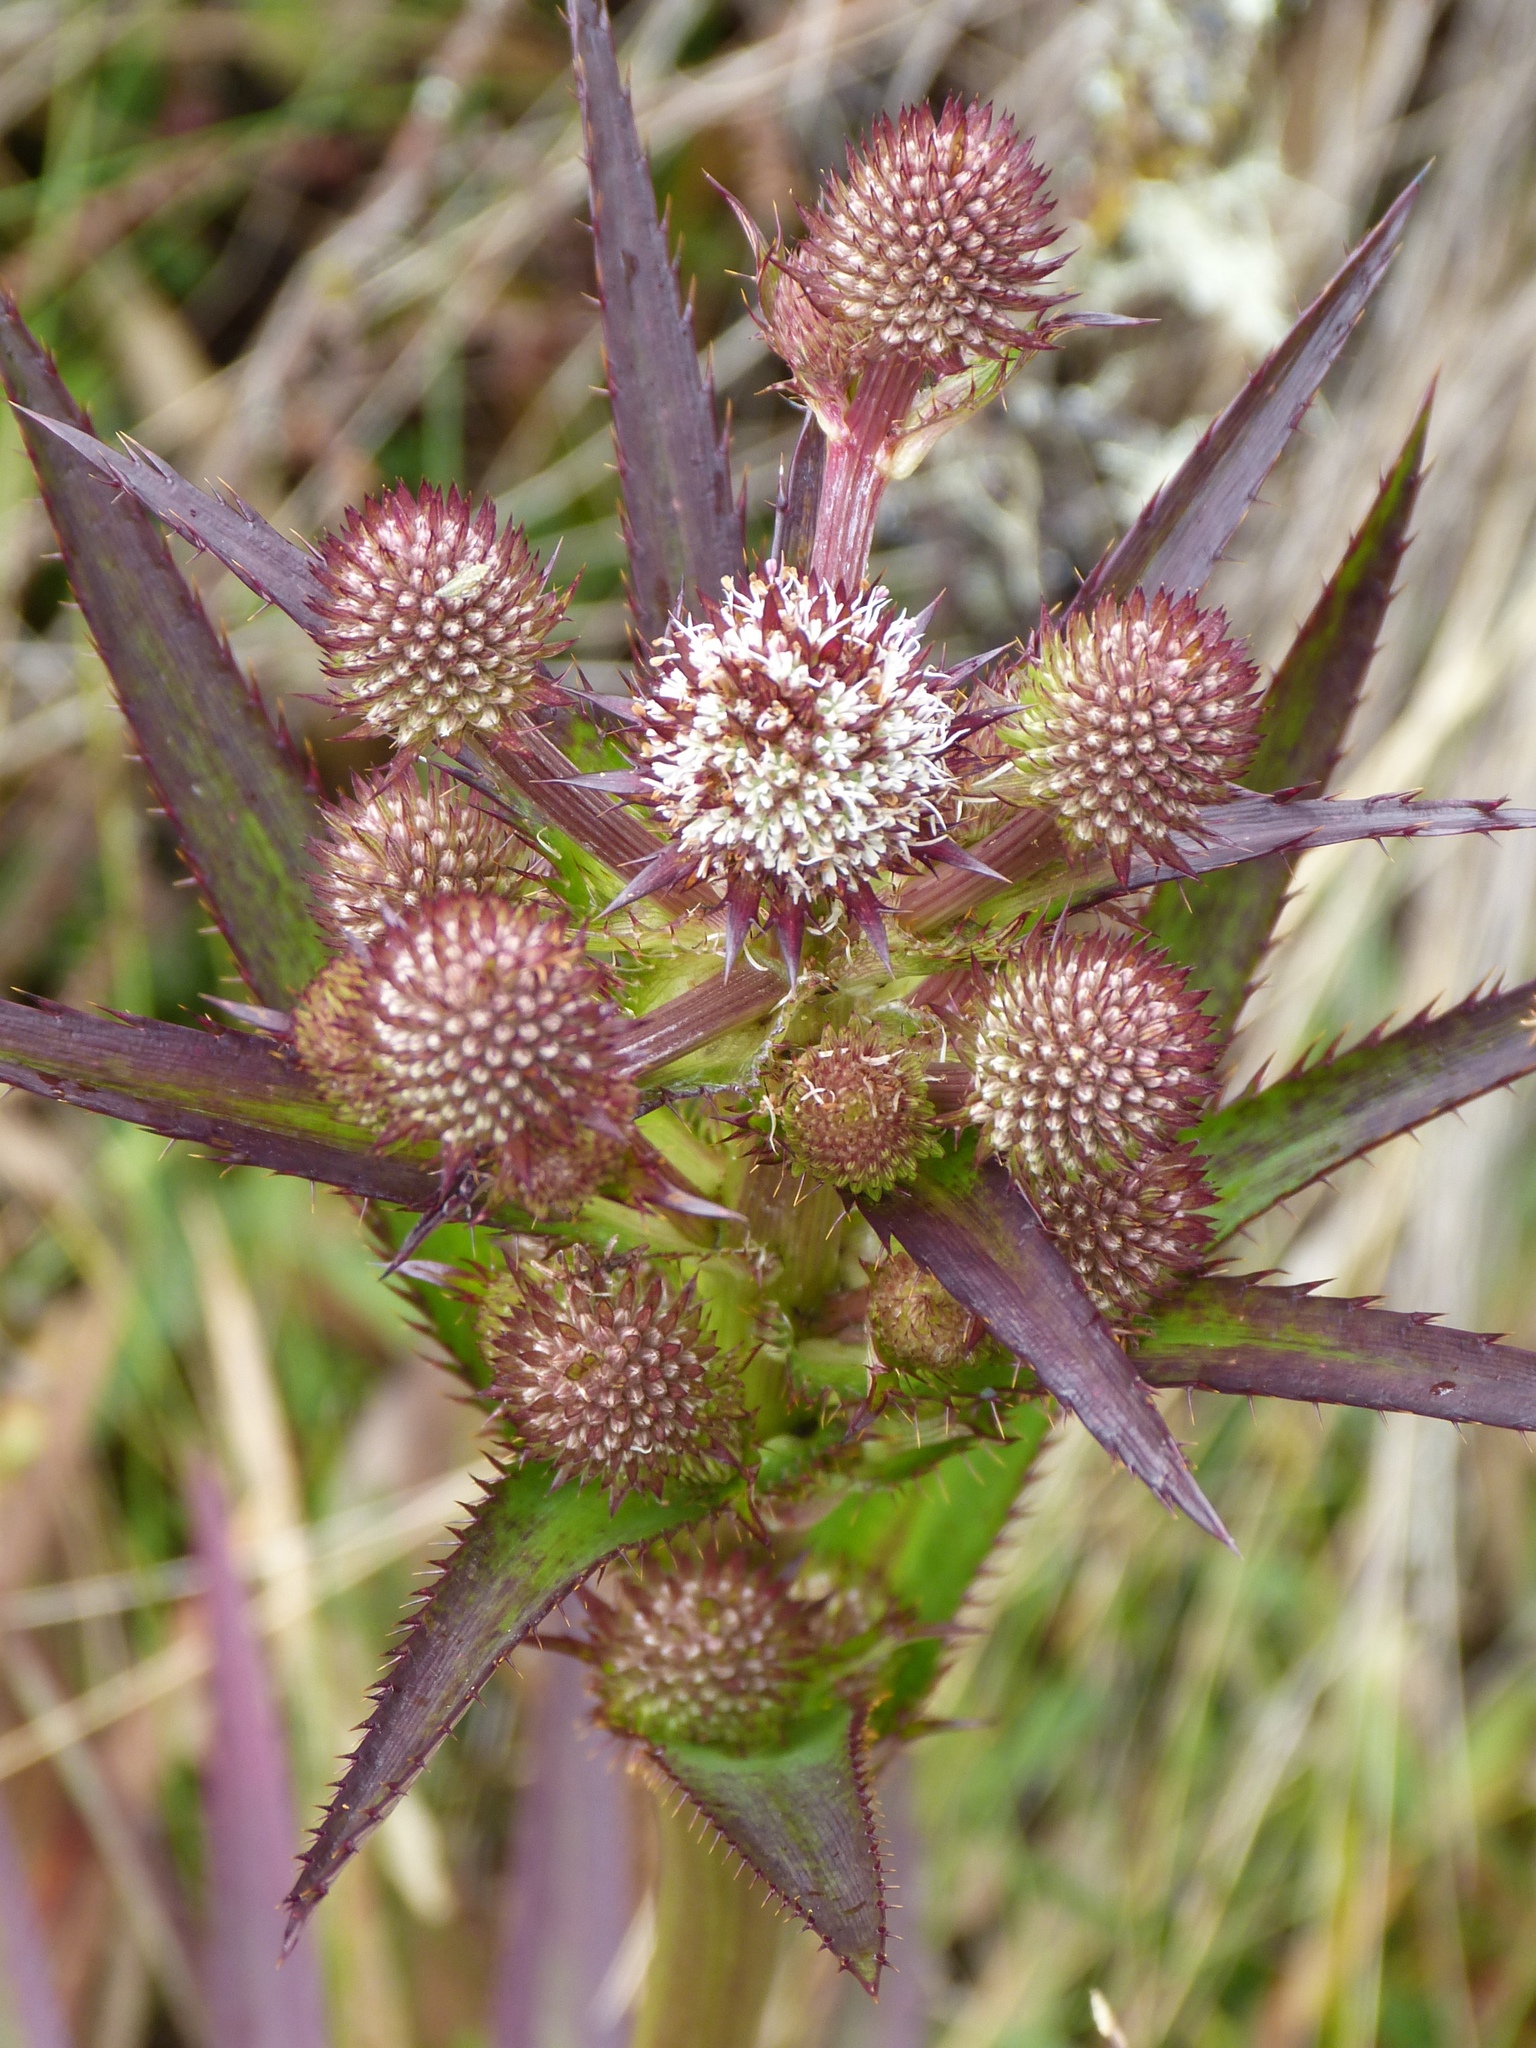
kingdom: Plantae
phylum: Tracheophyta
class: Magnoliopsida
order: Apiales
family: Apiaceae
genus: Eryngium
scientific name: Eryngium humboldtii
